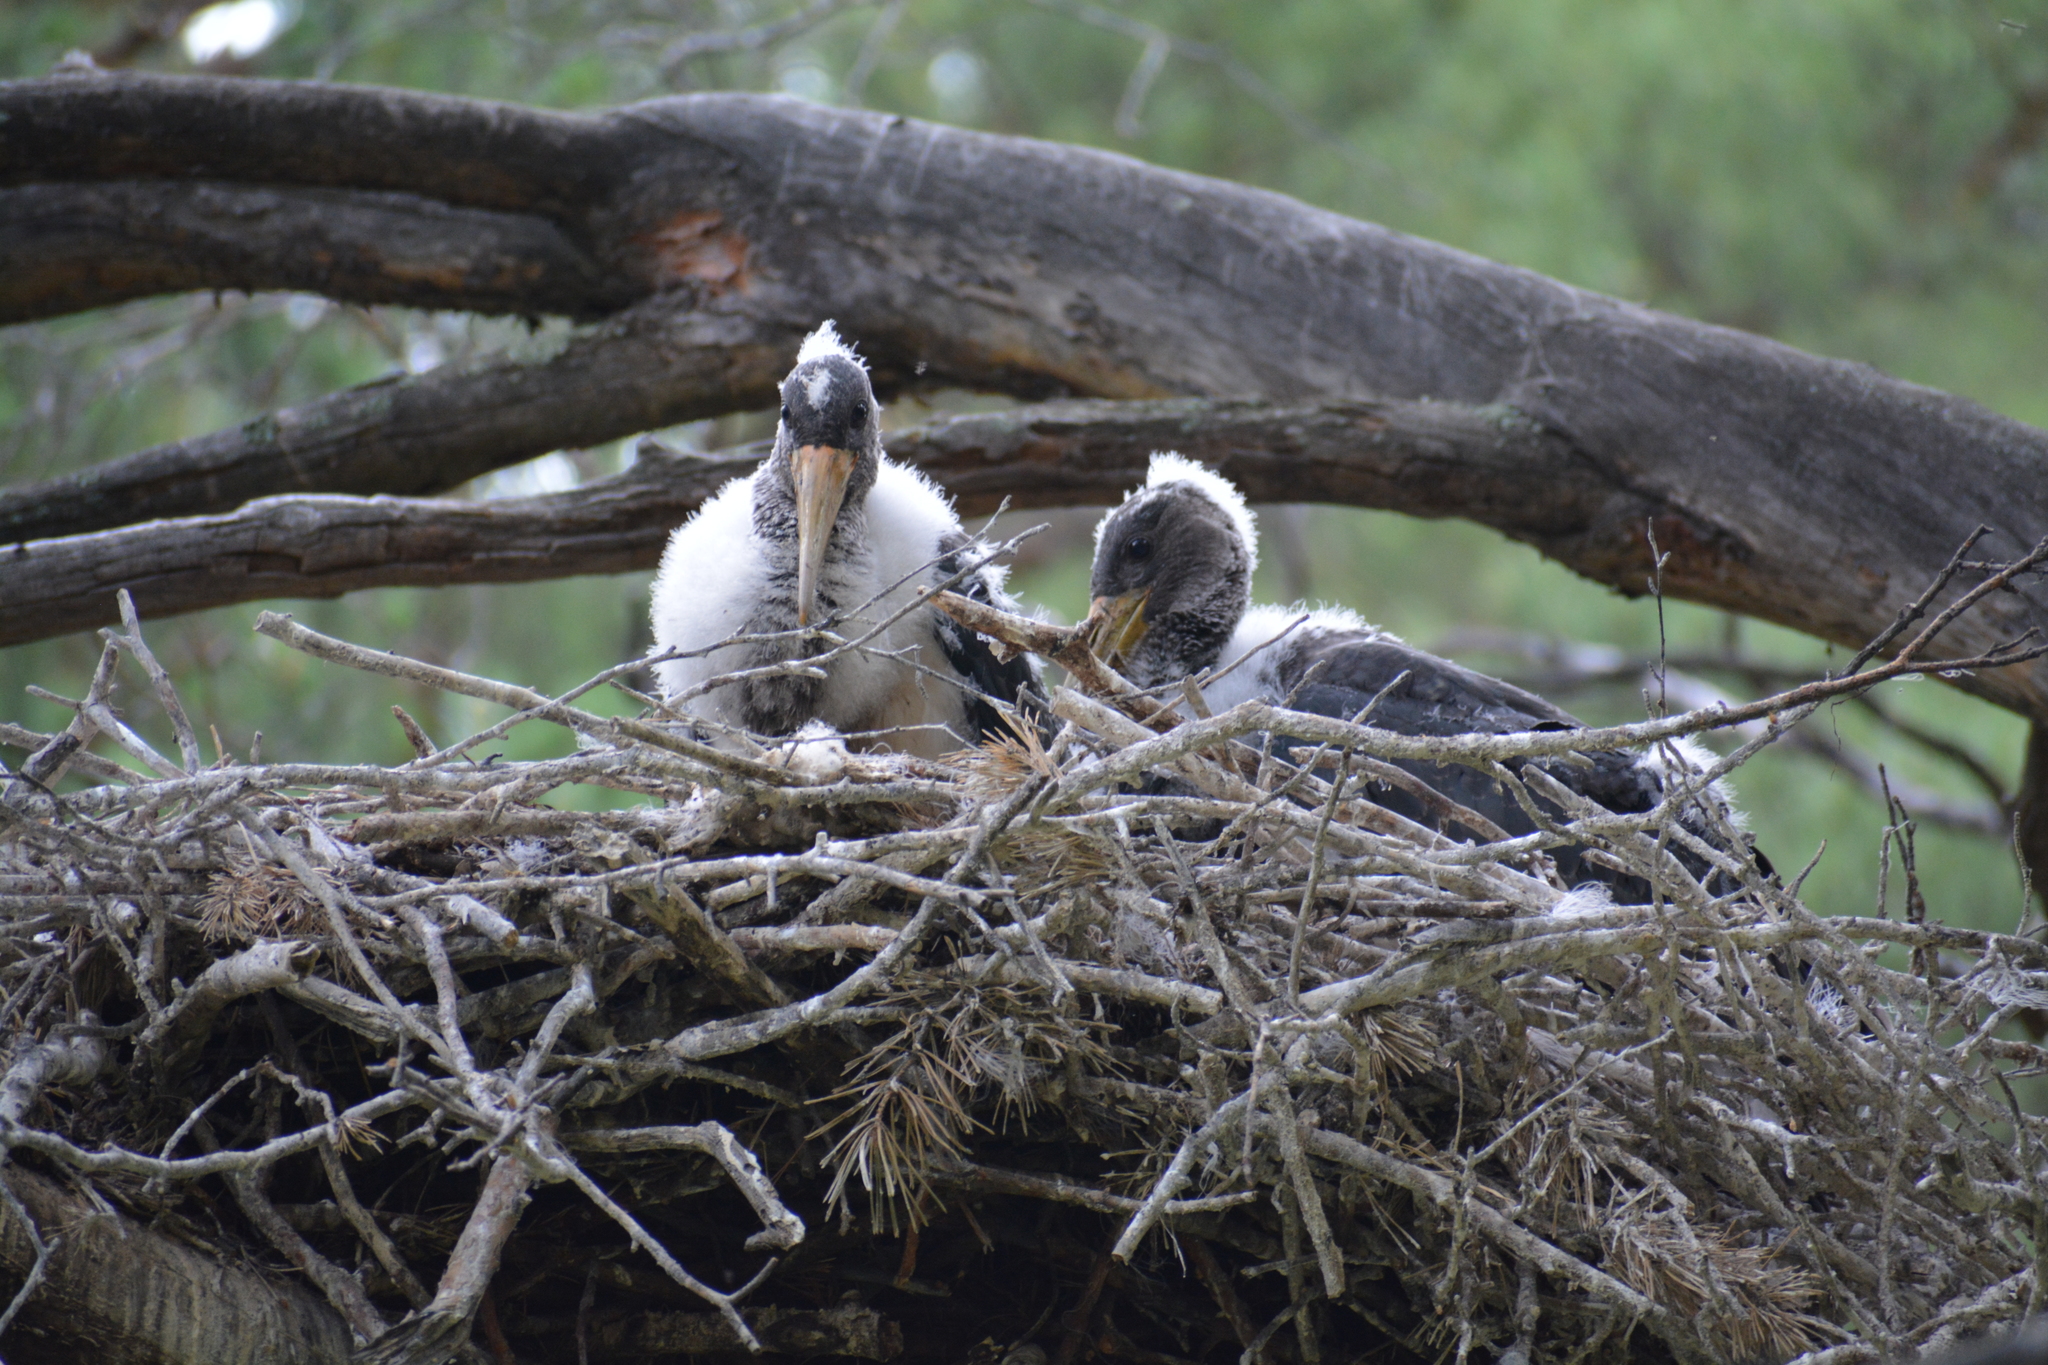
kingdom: Animalia
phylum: Chordata
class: Aves
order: Ciconiiformes
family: Ciconiidae
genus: Ciconia
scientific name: Ciconia nigra
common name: Black stork
